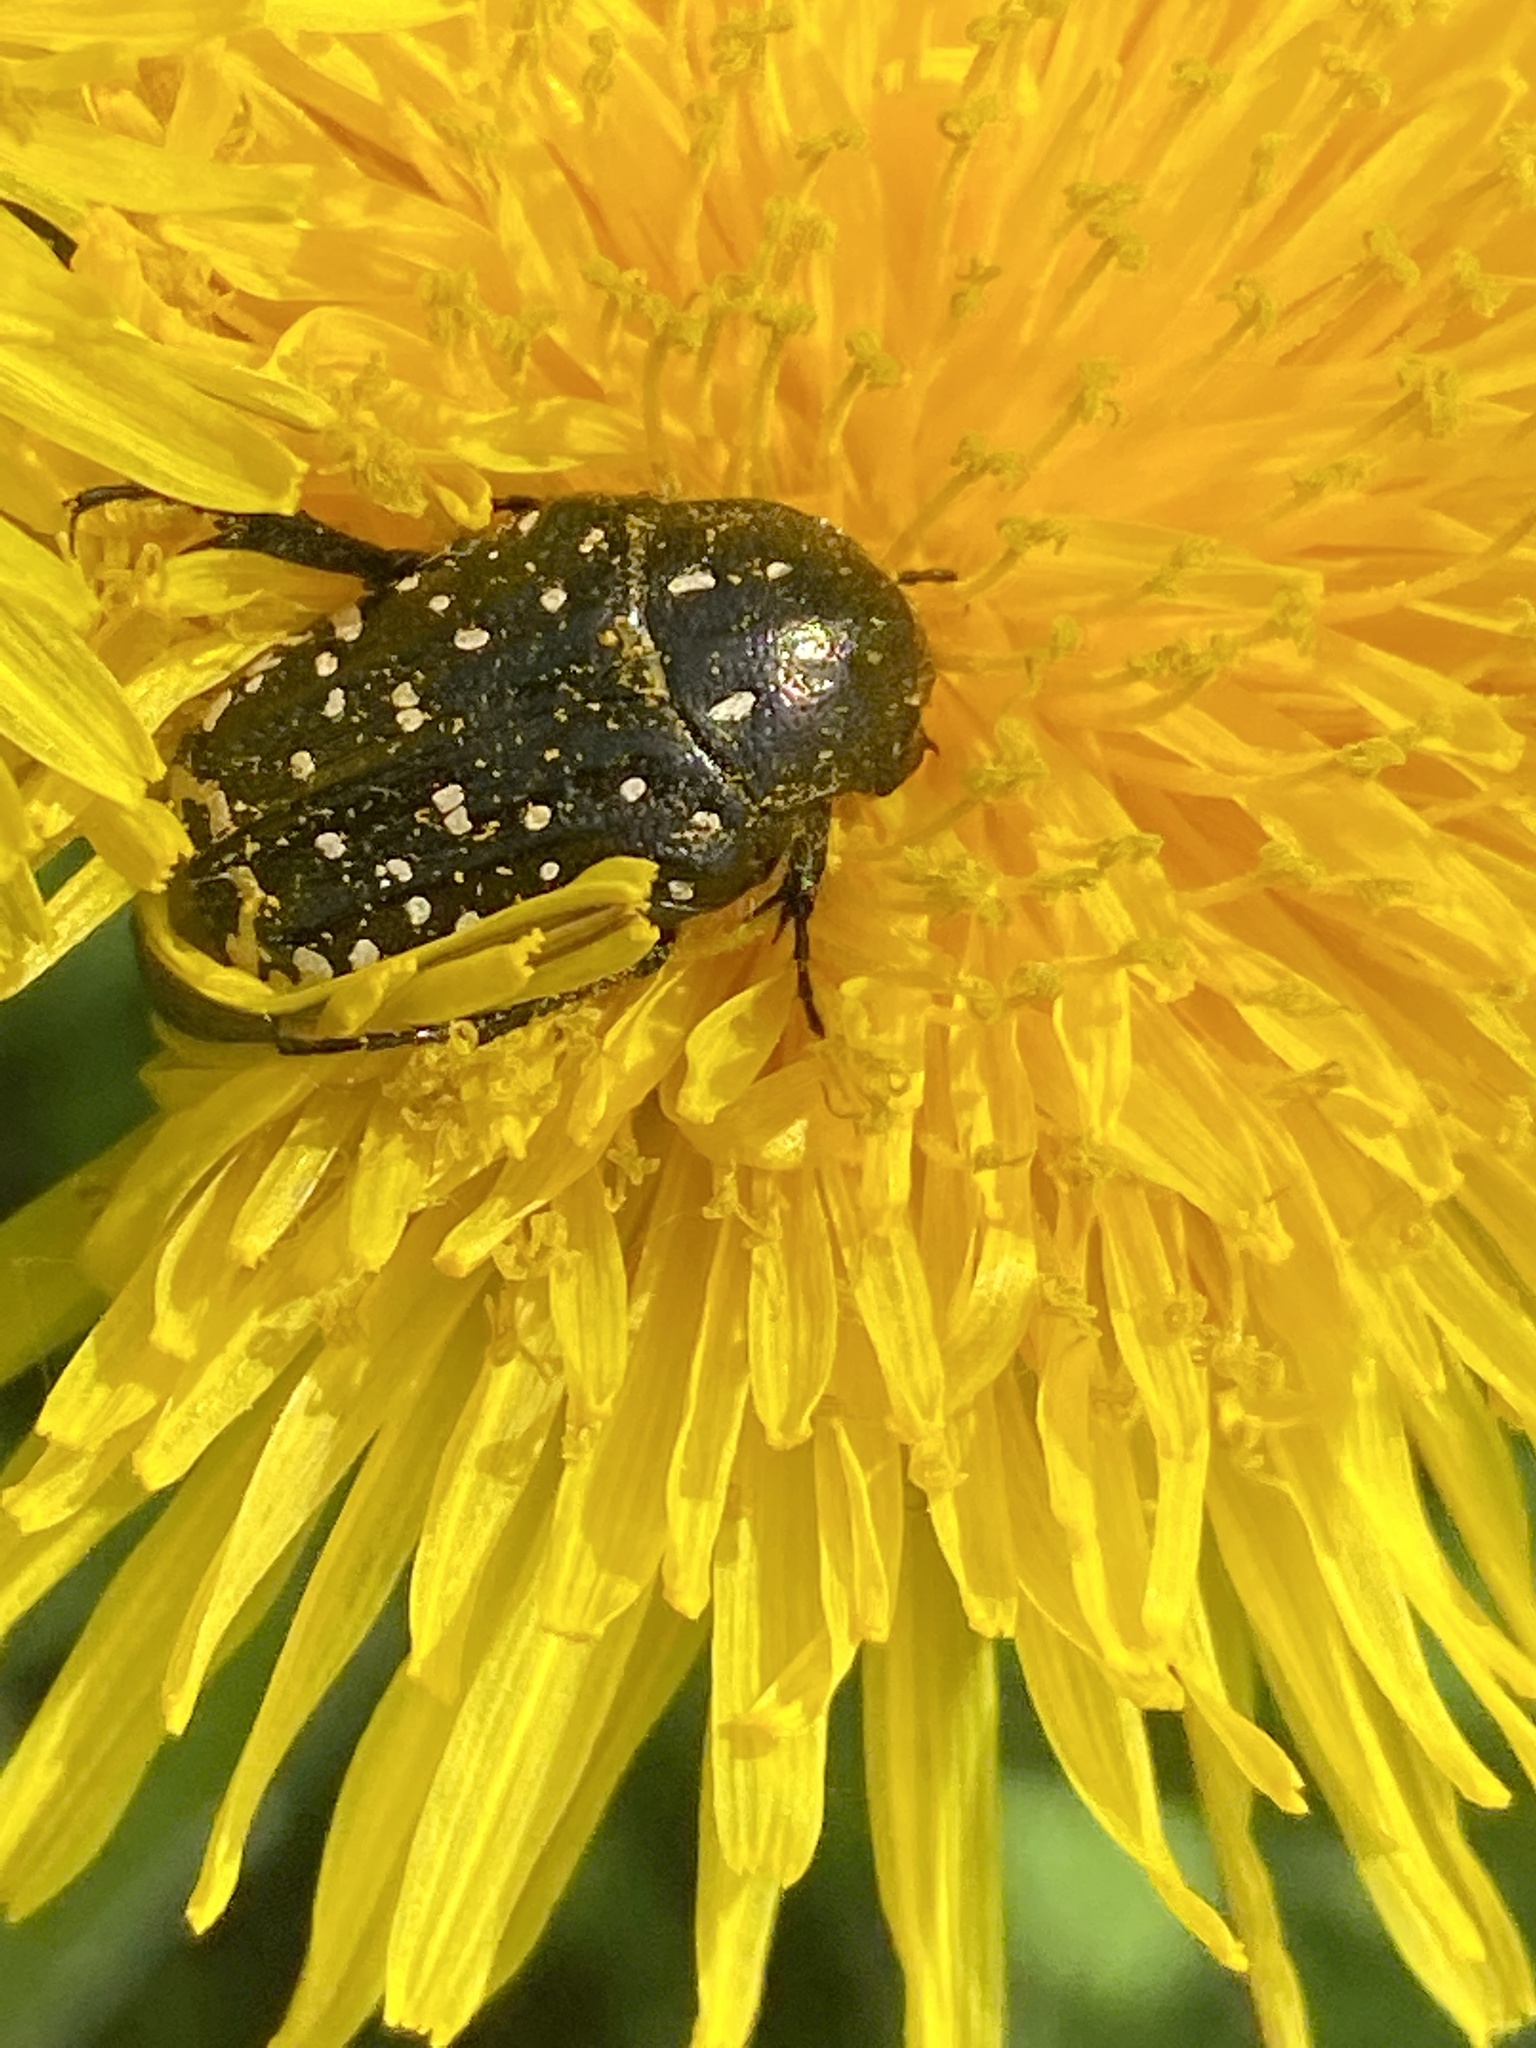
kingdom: Animalia
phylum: Arthropoda
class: Insecta
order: Coleoptera
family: Scarabaeidae
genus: Oxythyrea
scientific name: Oxythyrea funesta
